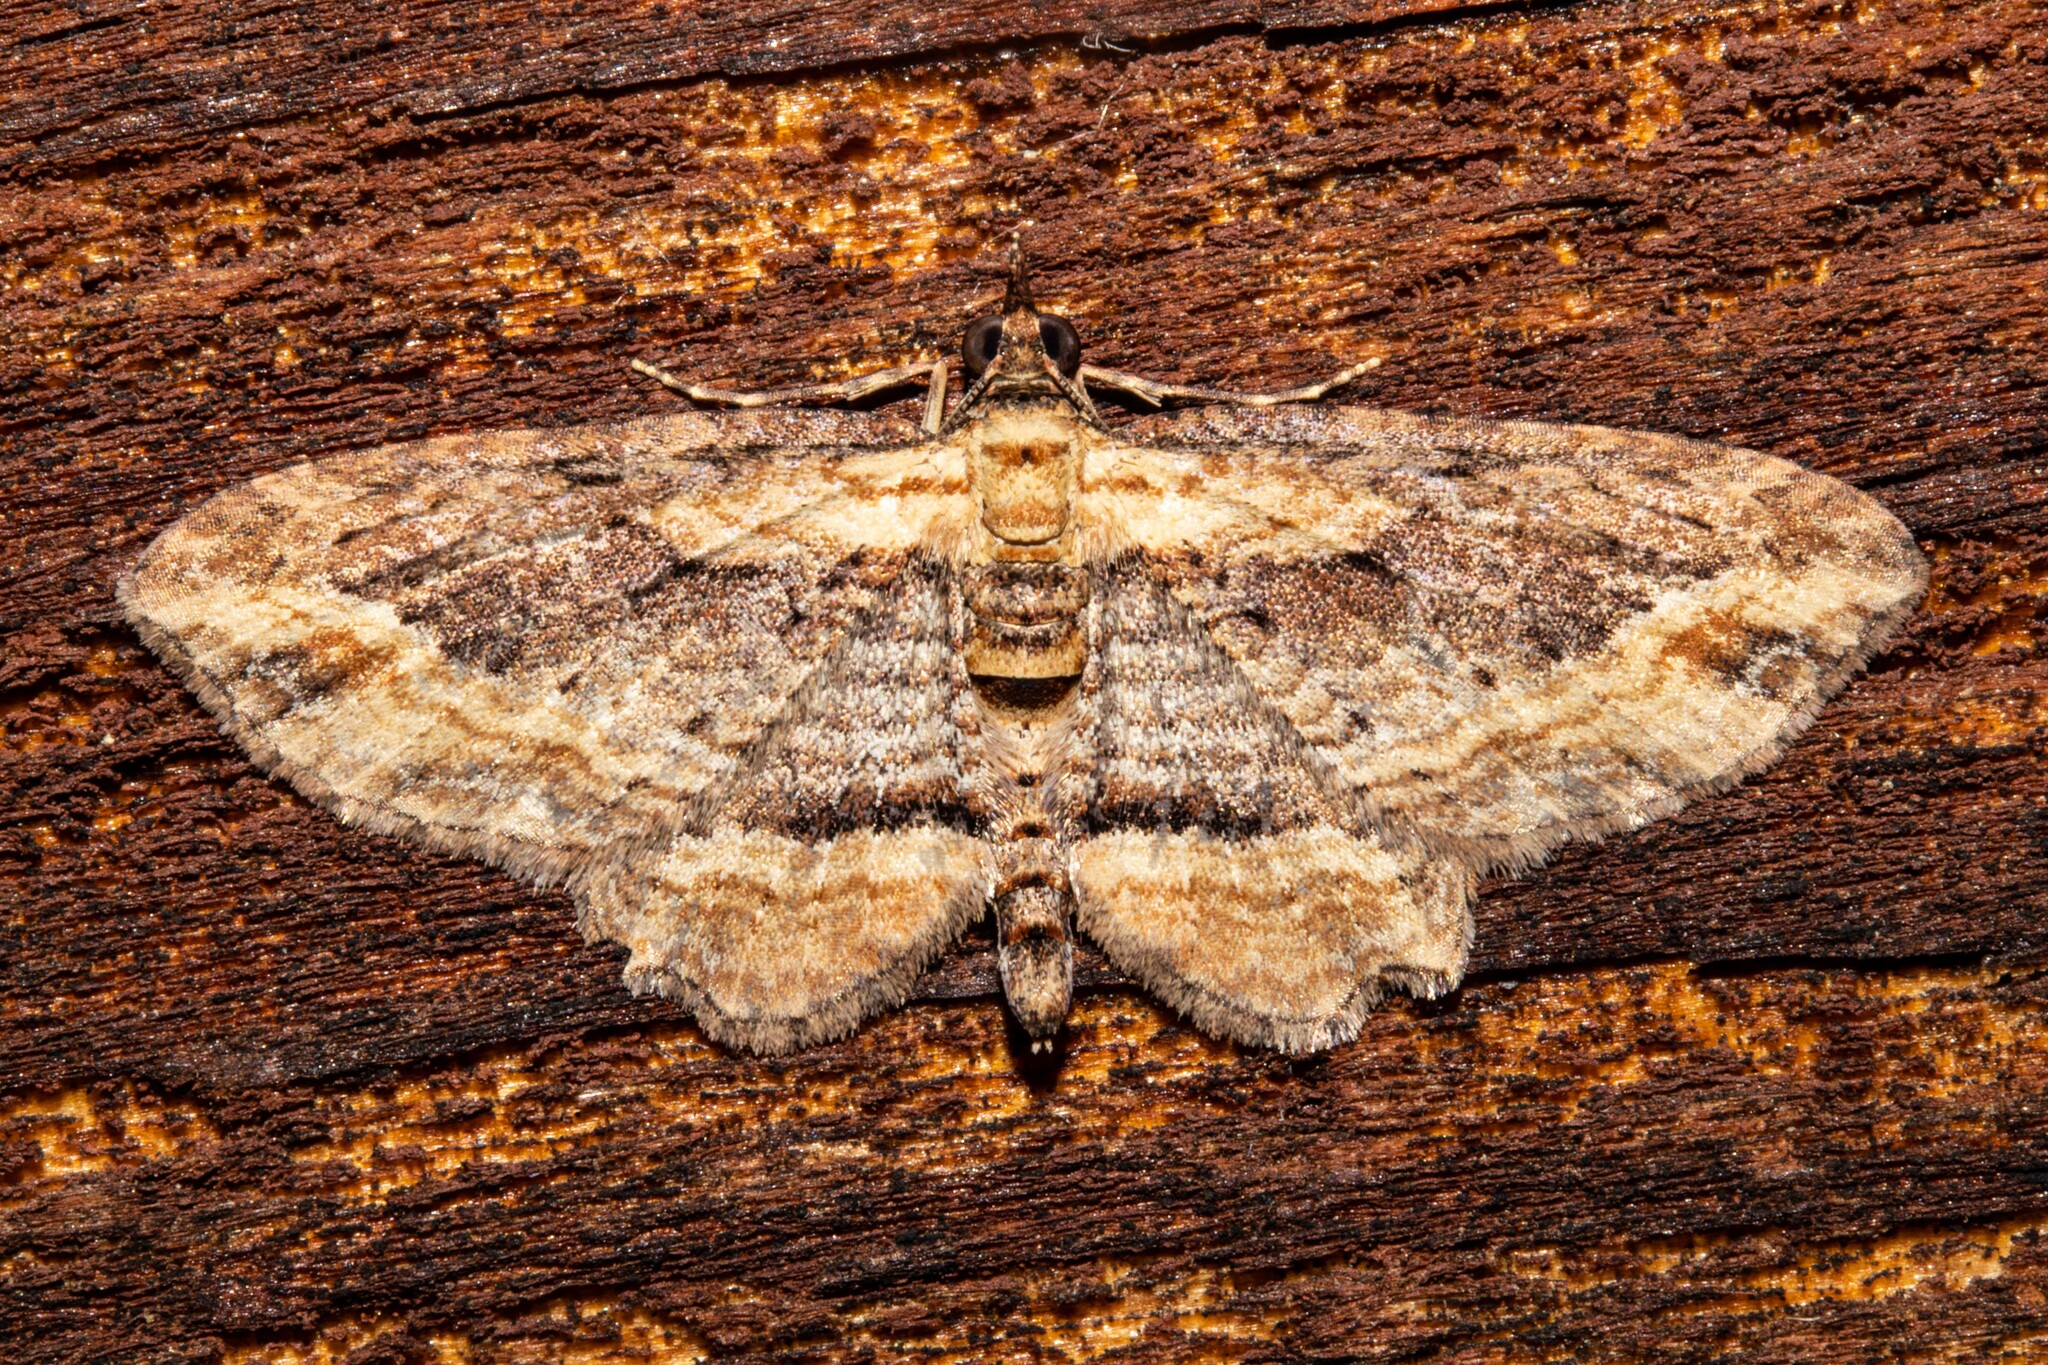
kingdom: Animalia
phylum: Arthropoda
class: Insecta
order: Lepidoptera
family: Geometridae
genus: Chloroclystis
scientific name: Chloroclystis filata
